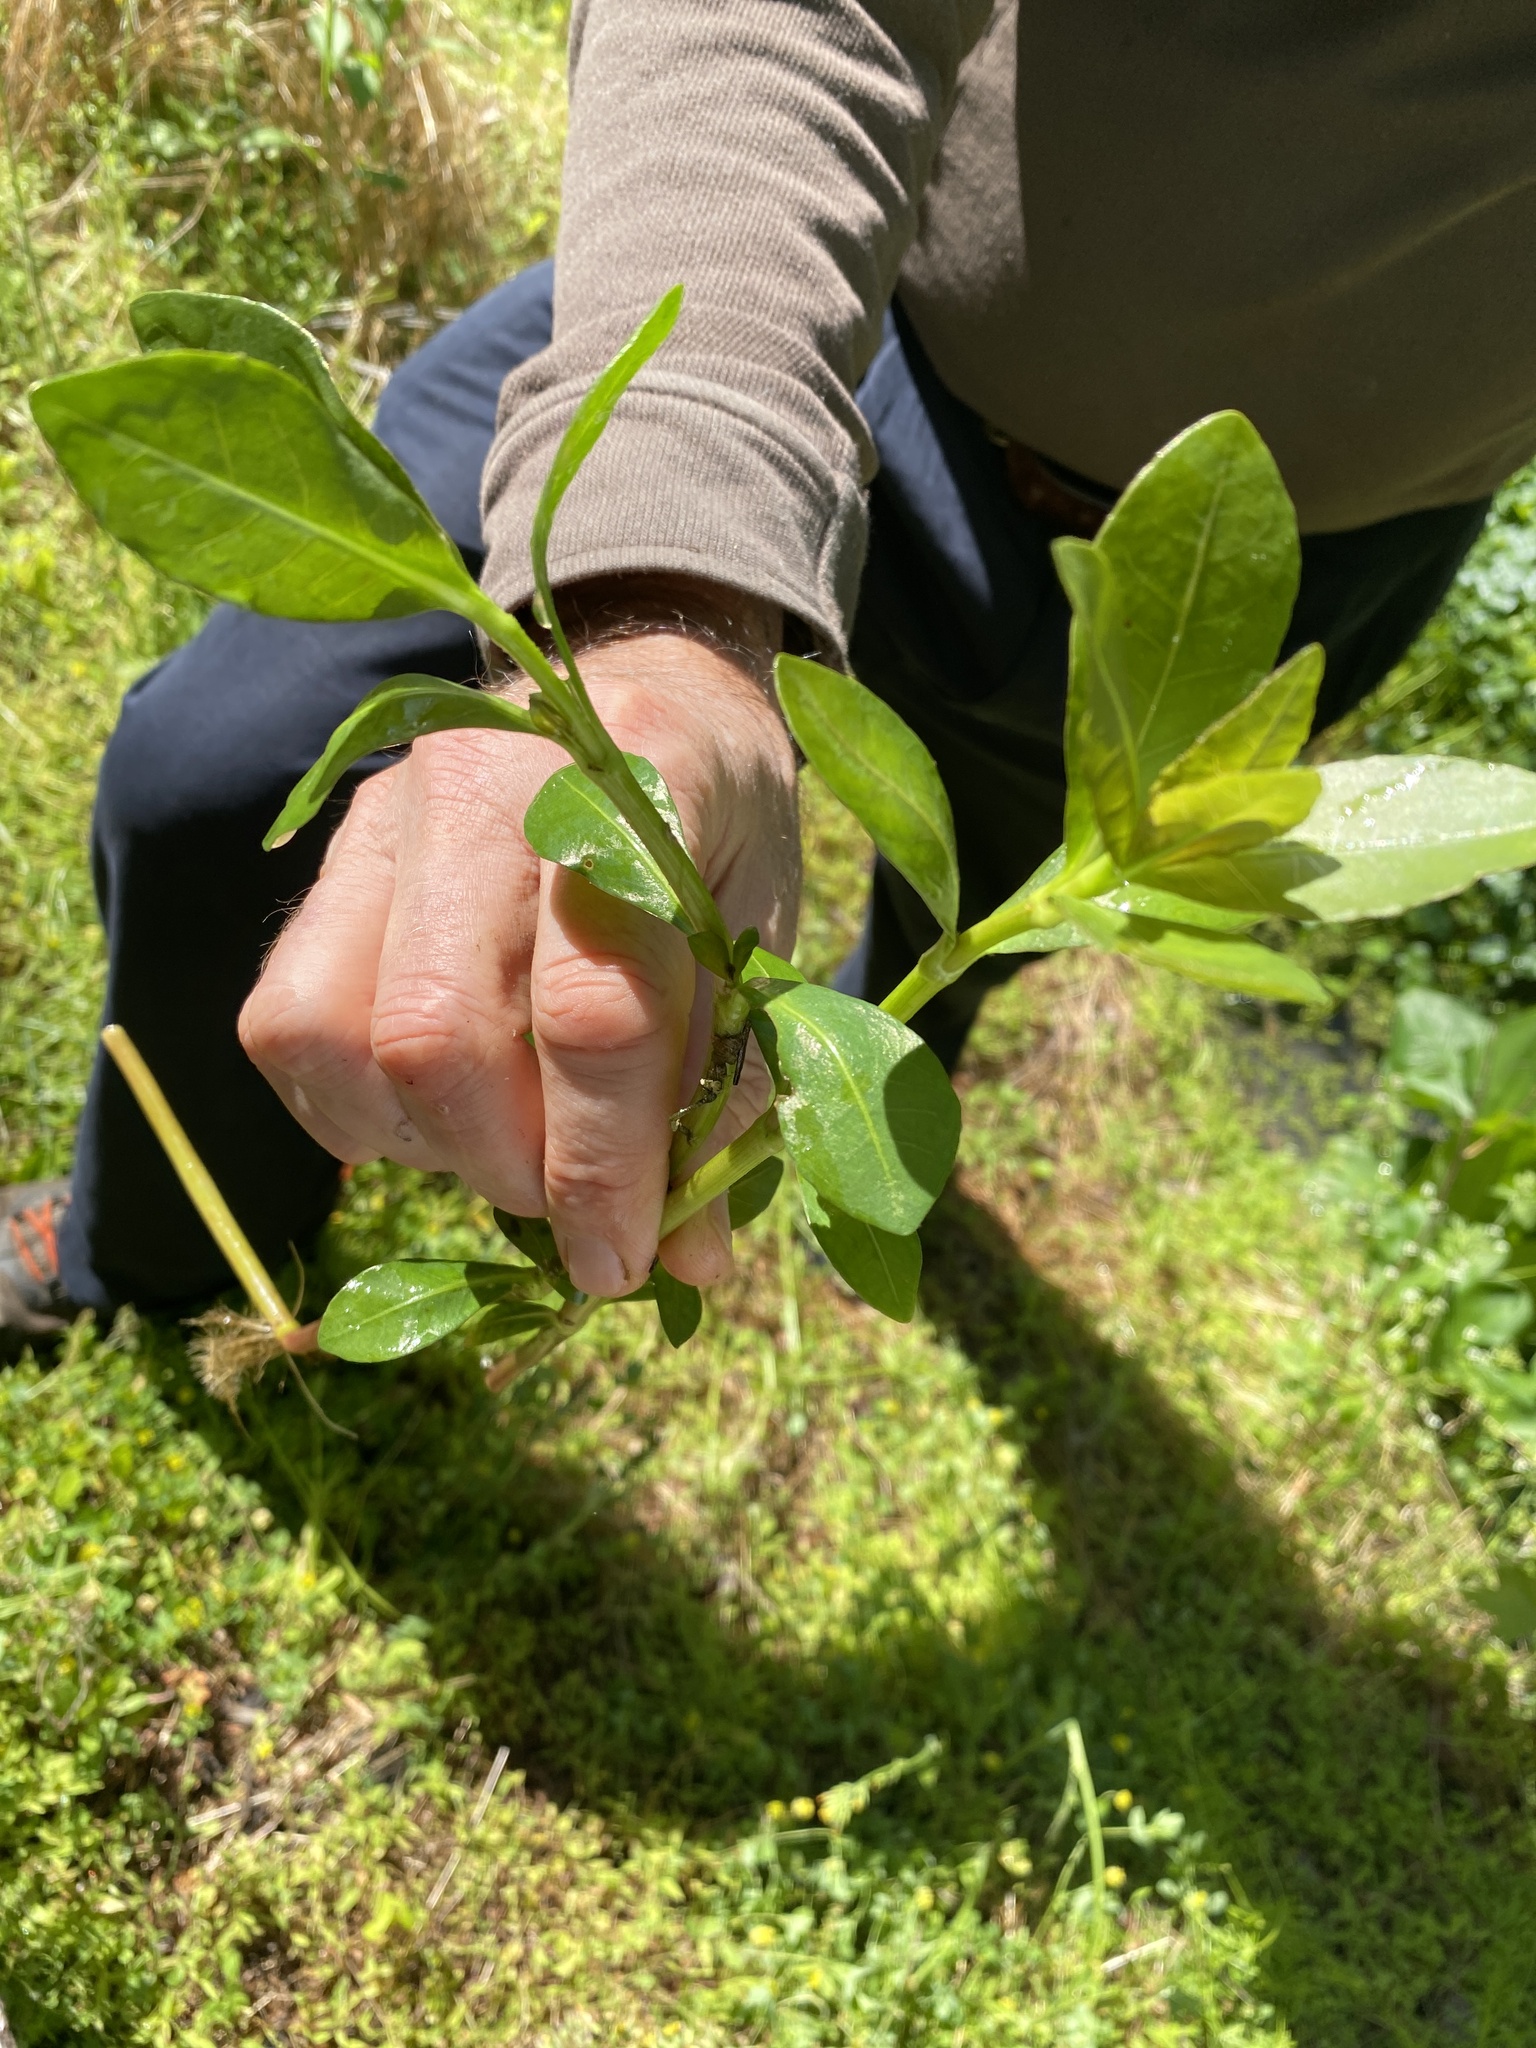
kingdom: Plantae
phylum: Tracheophyta
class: Magnoliopsida
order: Caryophyllales
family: Amaranthaceae
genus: Alternanthera
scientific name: Alternanthera philoxeroides
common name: Alligatorweed
